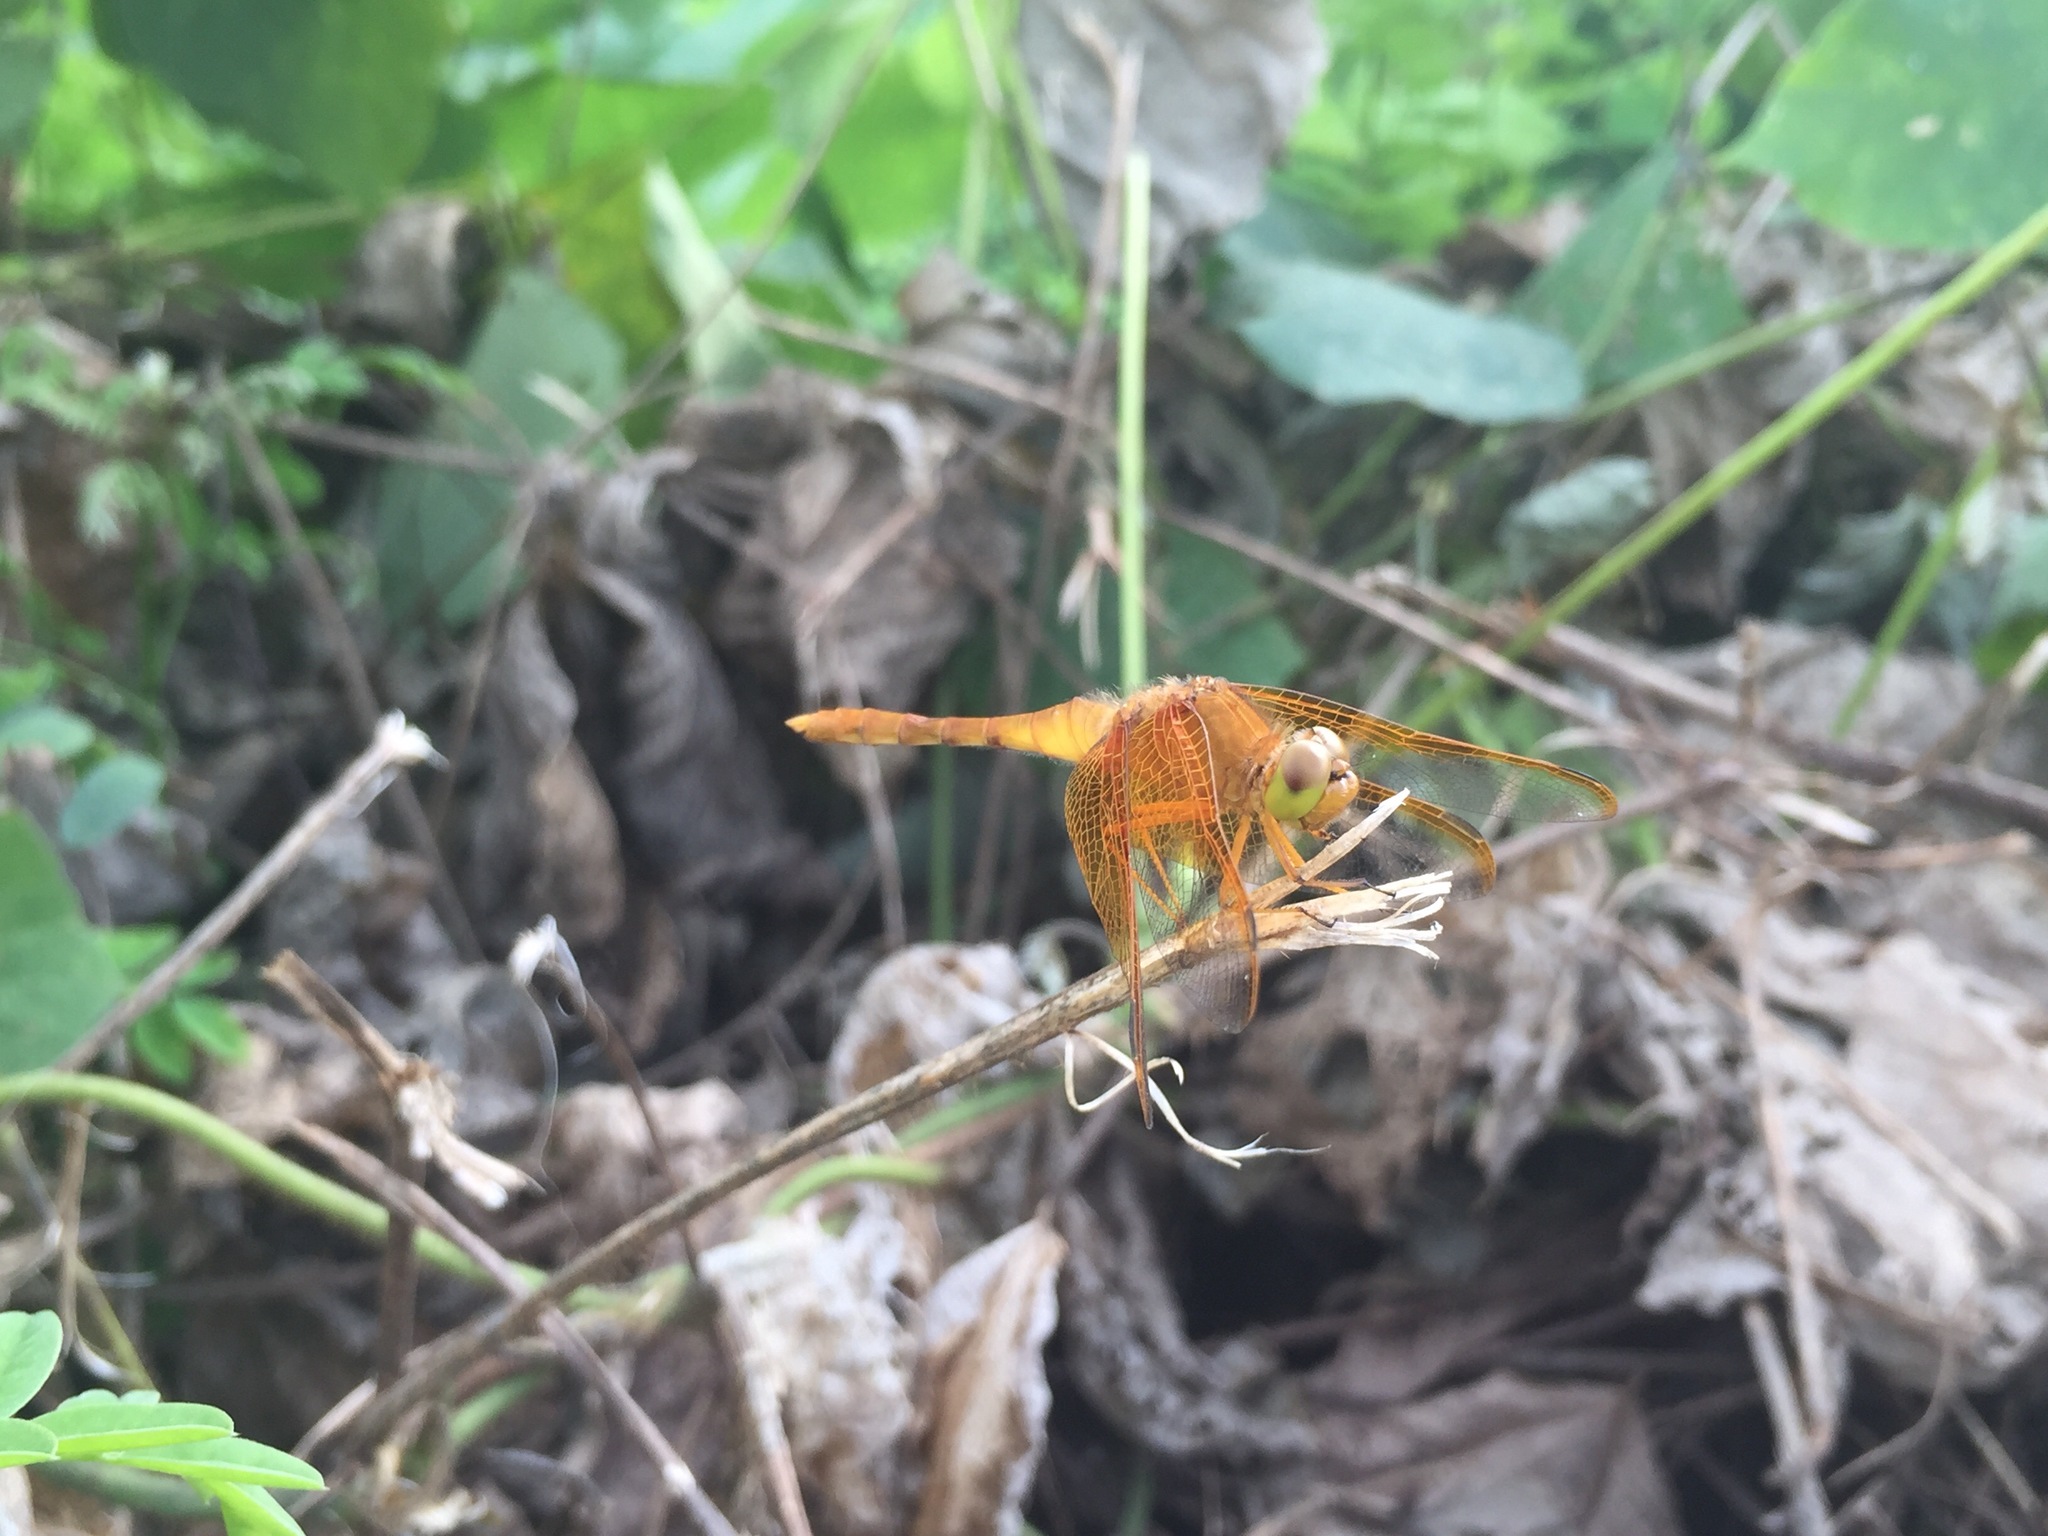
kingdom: Animalia
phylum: Arthropoda
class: Insecta
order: Odonata
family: Libellulidae
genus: Sympetrum
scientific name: Sympetrum croceolum
